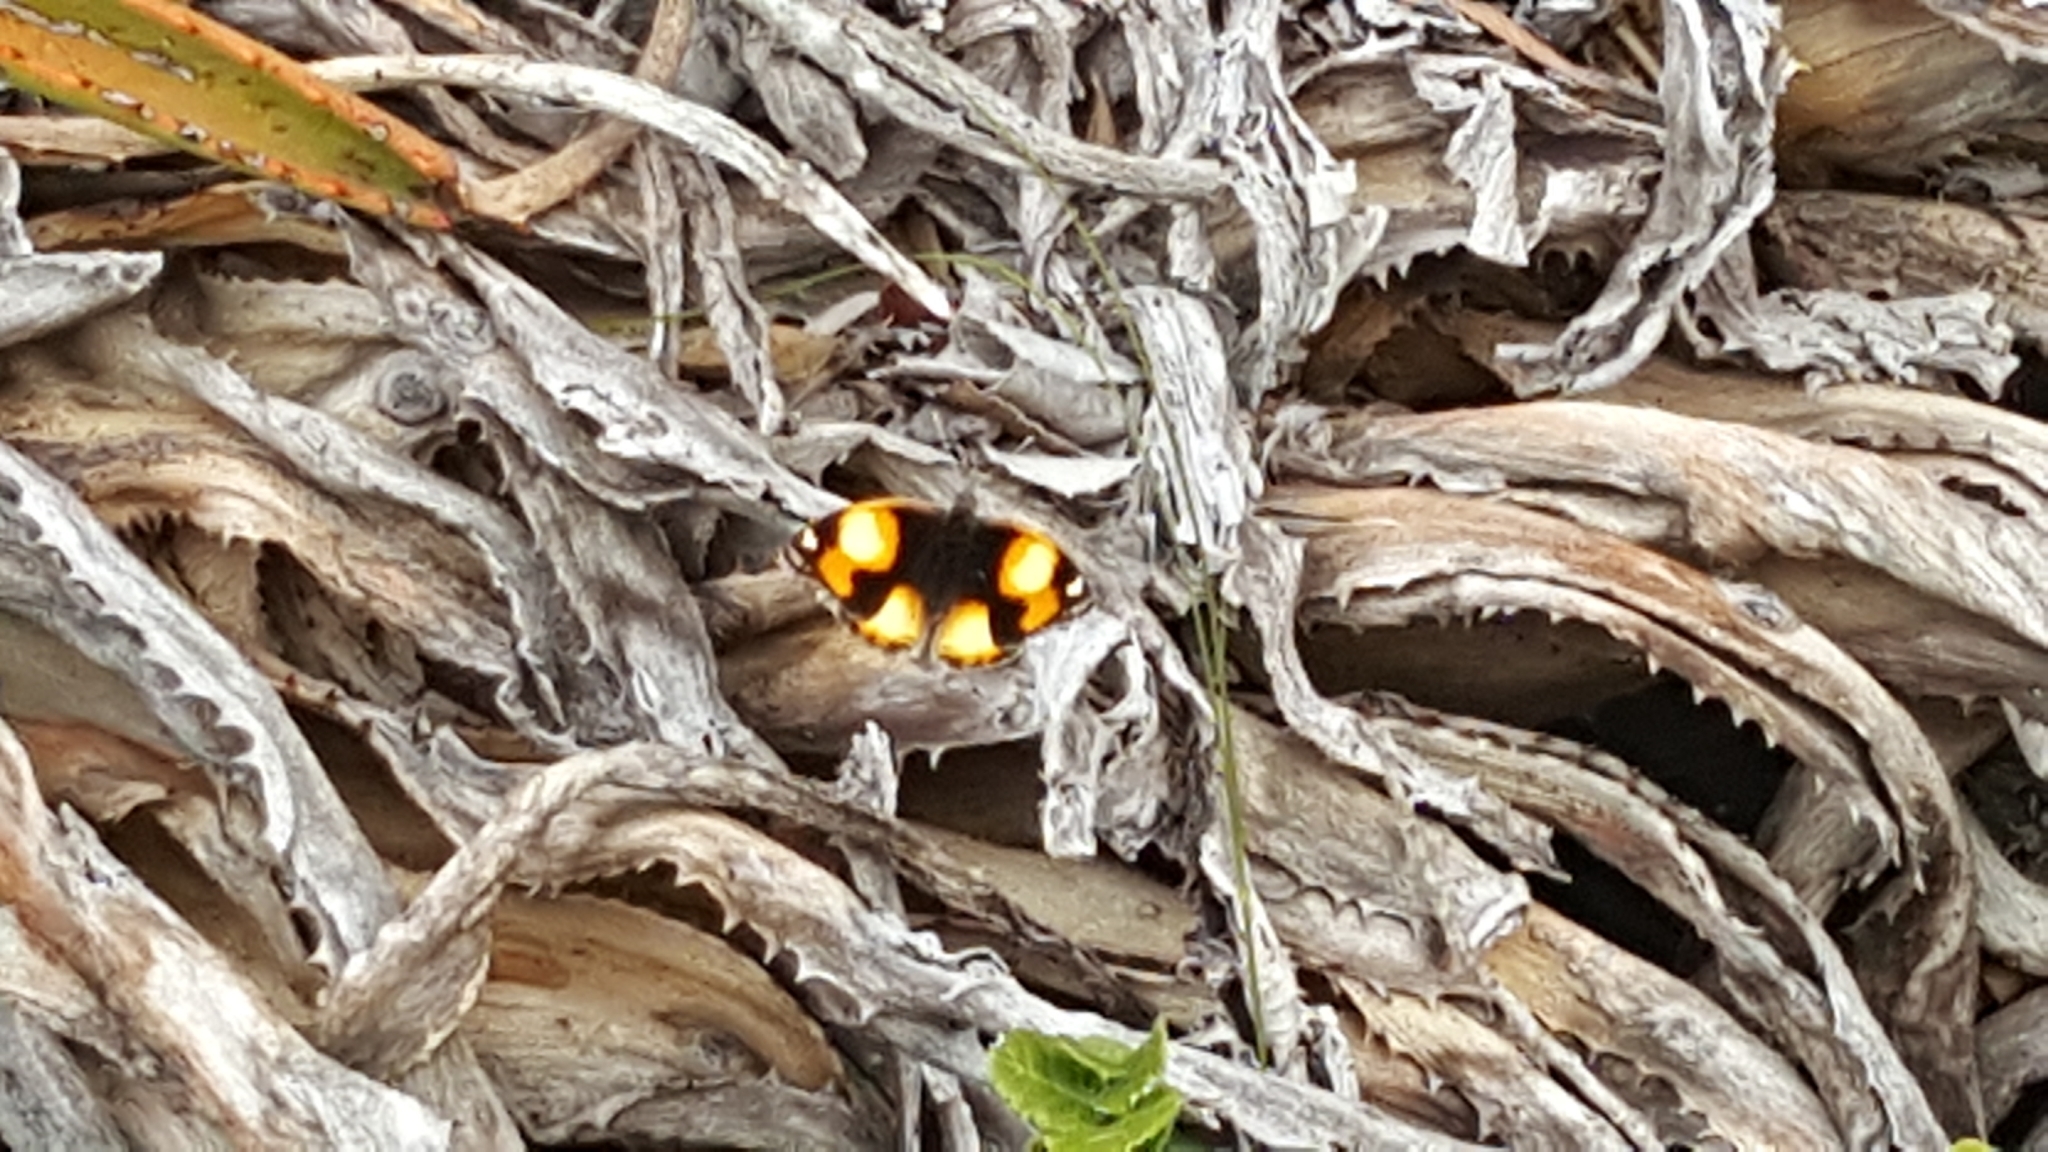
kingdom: Animalia
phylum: Arthropoda
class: Insecta
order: Lepidoptera
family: Nymphalidae
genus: Junonia
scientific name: Junonia hierta
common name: Yellow pansy
